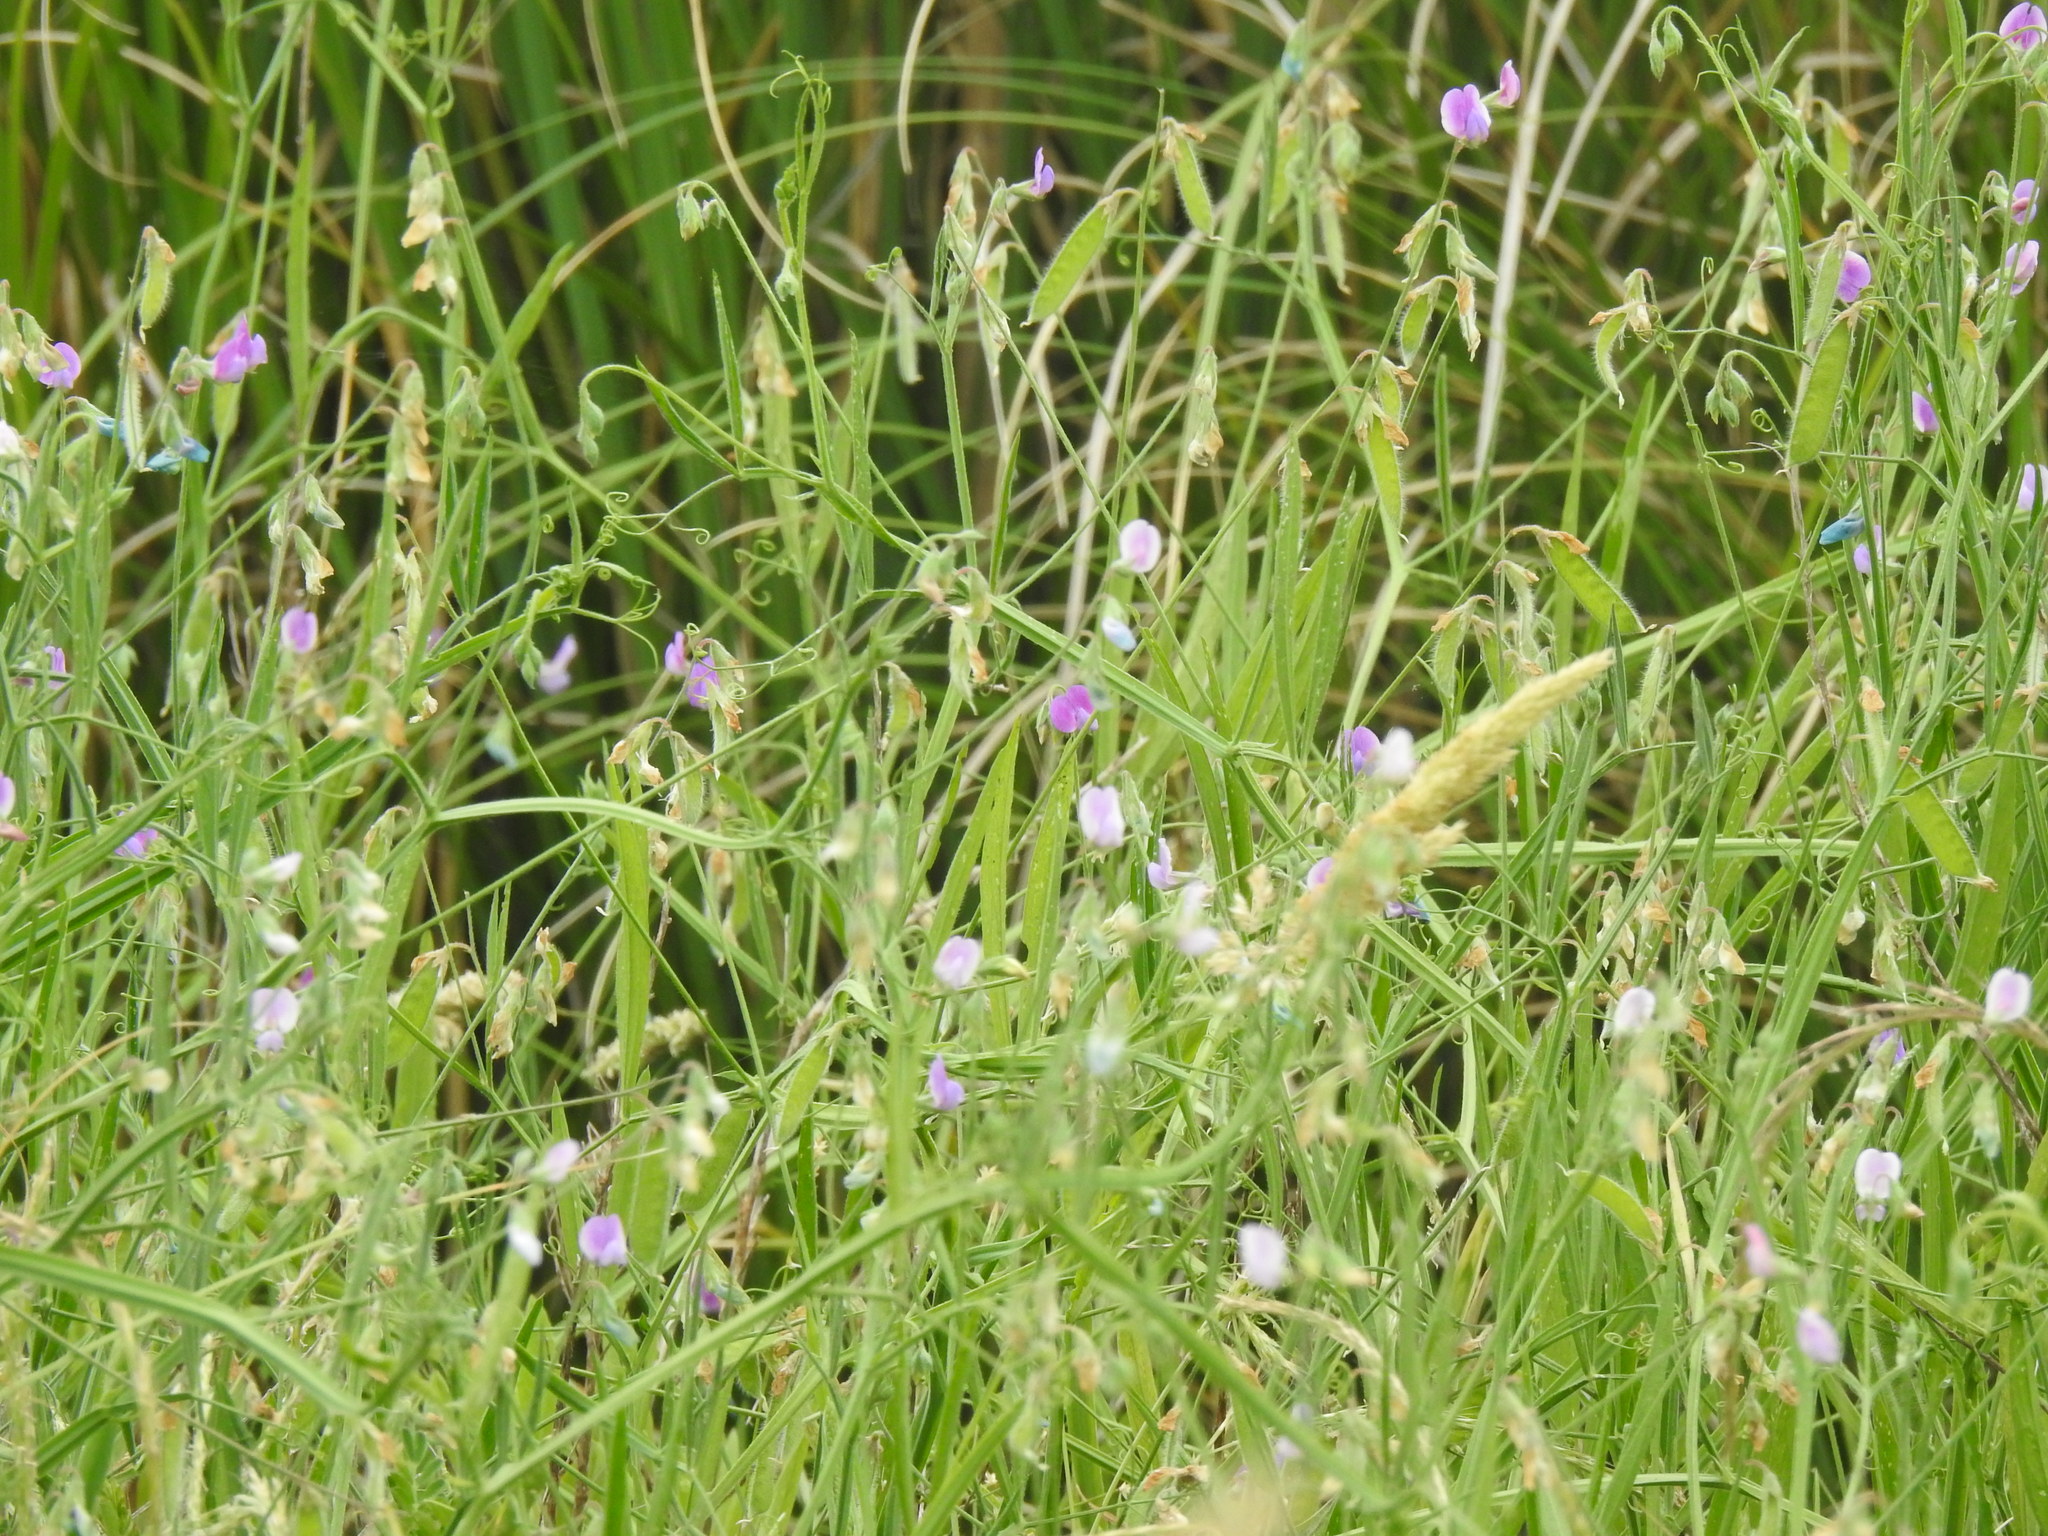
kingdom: Plantae
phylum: Tracheophyta
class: Magnoliopsida
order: Fabales
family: Fabaceae
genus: Lathyrus
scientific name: Lathyrus hirsutus
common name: Hairy vetchling
